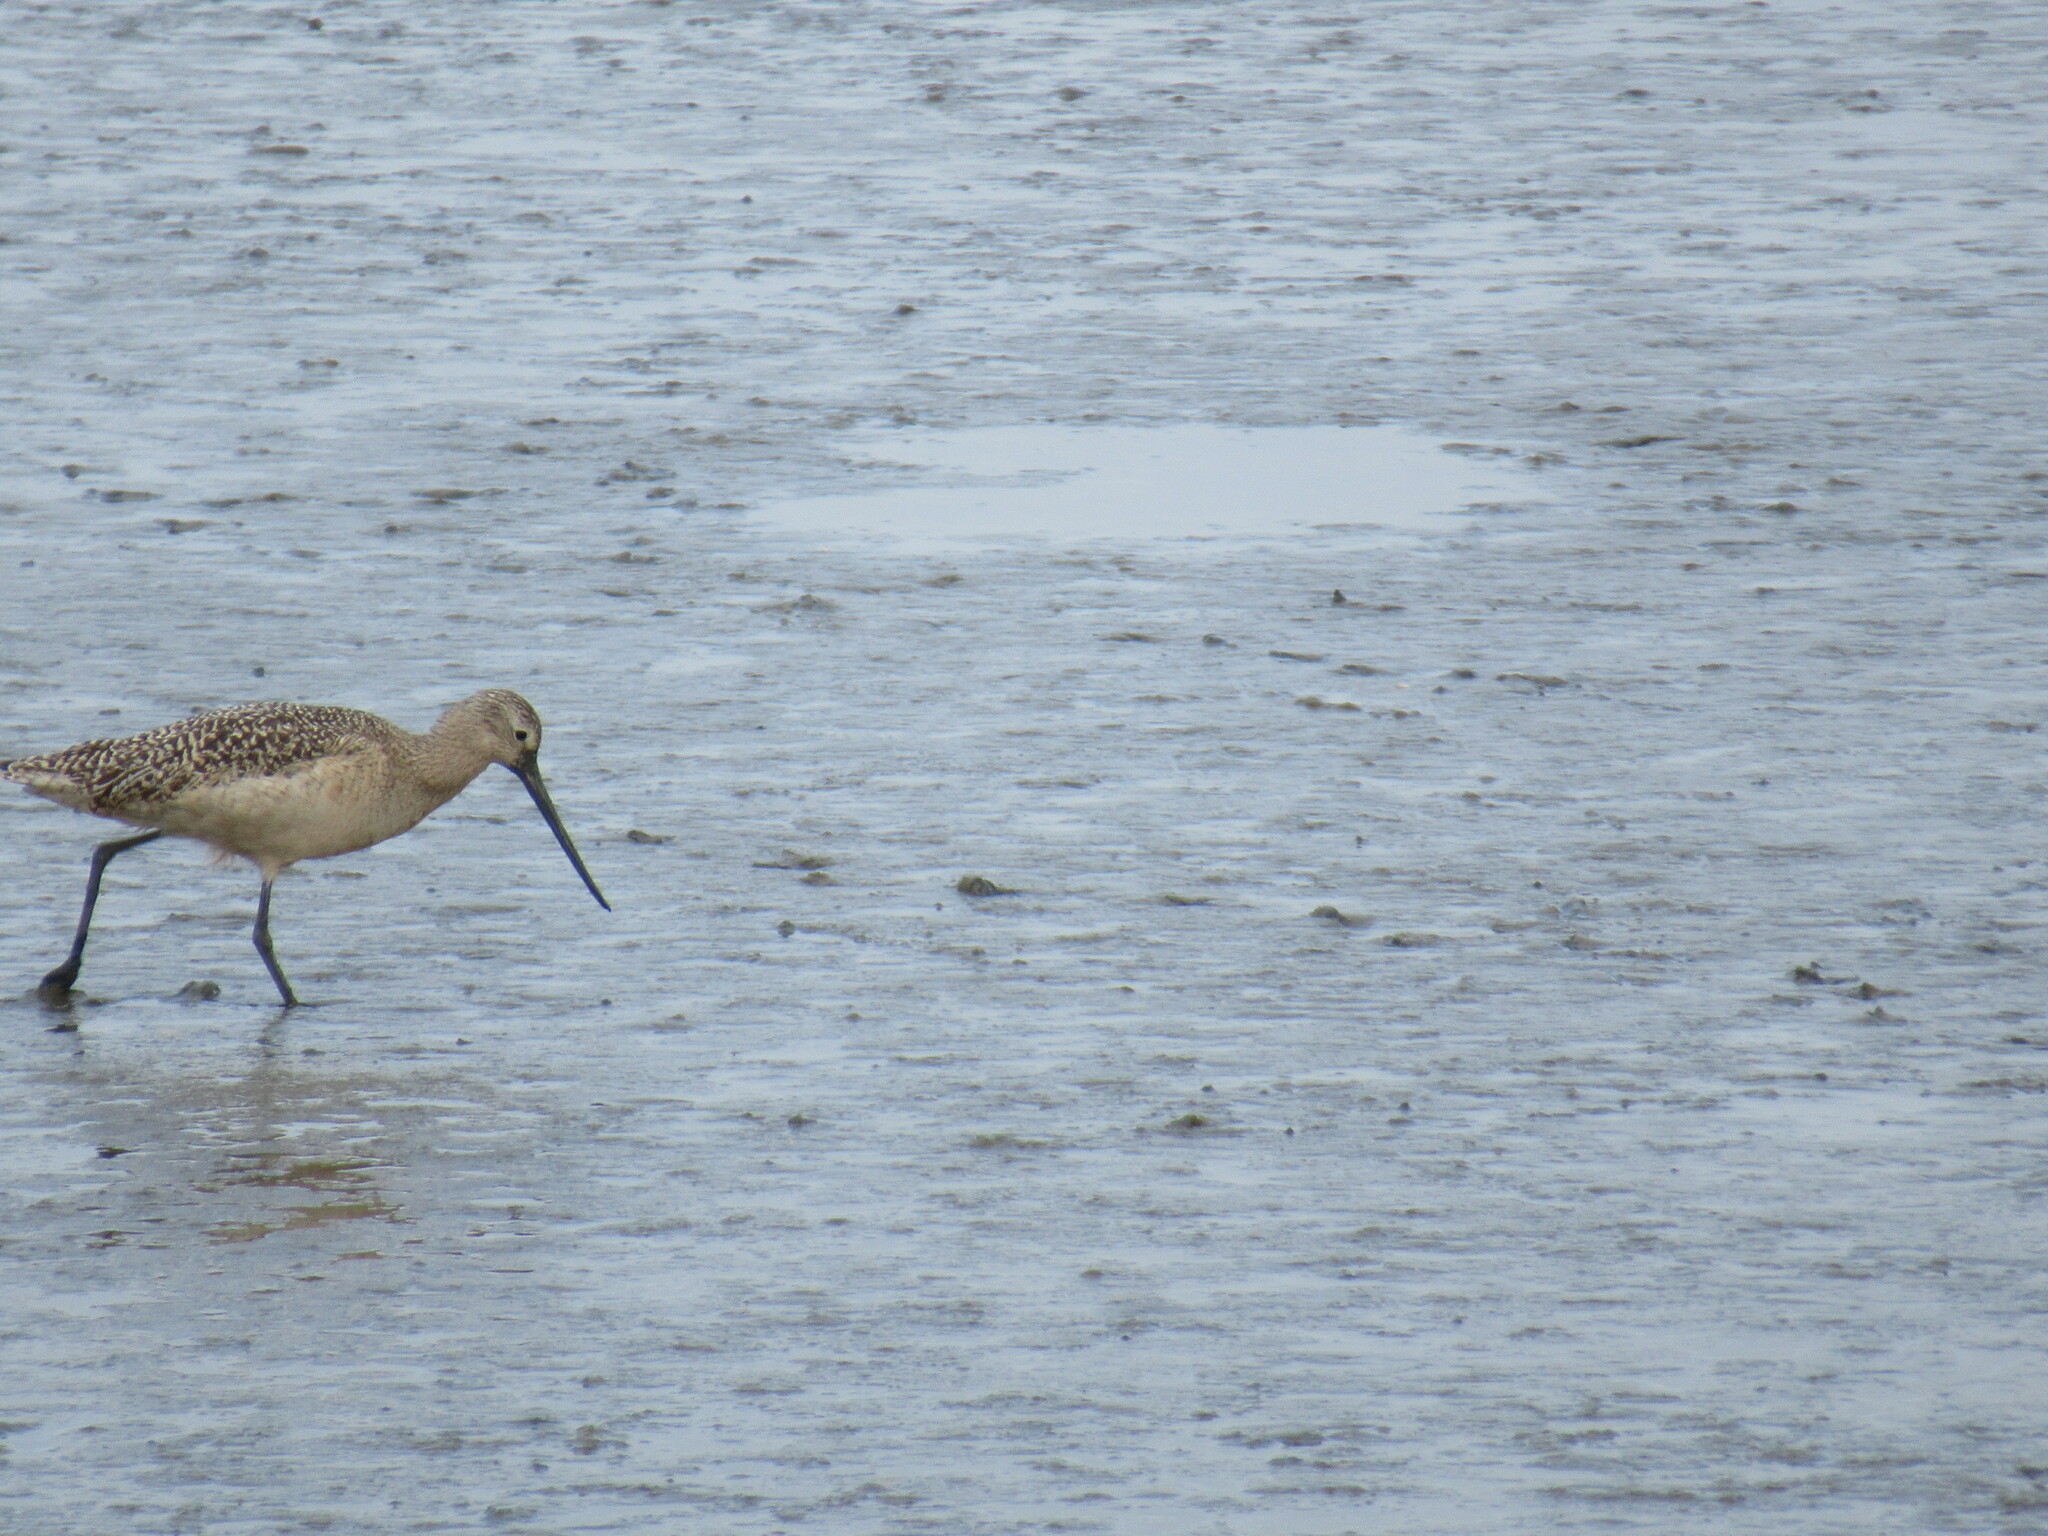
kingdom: Animalia
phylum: Chordata
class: Aves
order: Charadriiformes
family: Scolopacidae
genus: Limosa
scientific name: Limosa fedoa
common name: Marbled godwit
